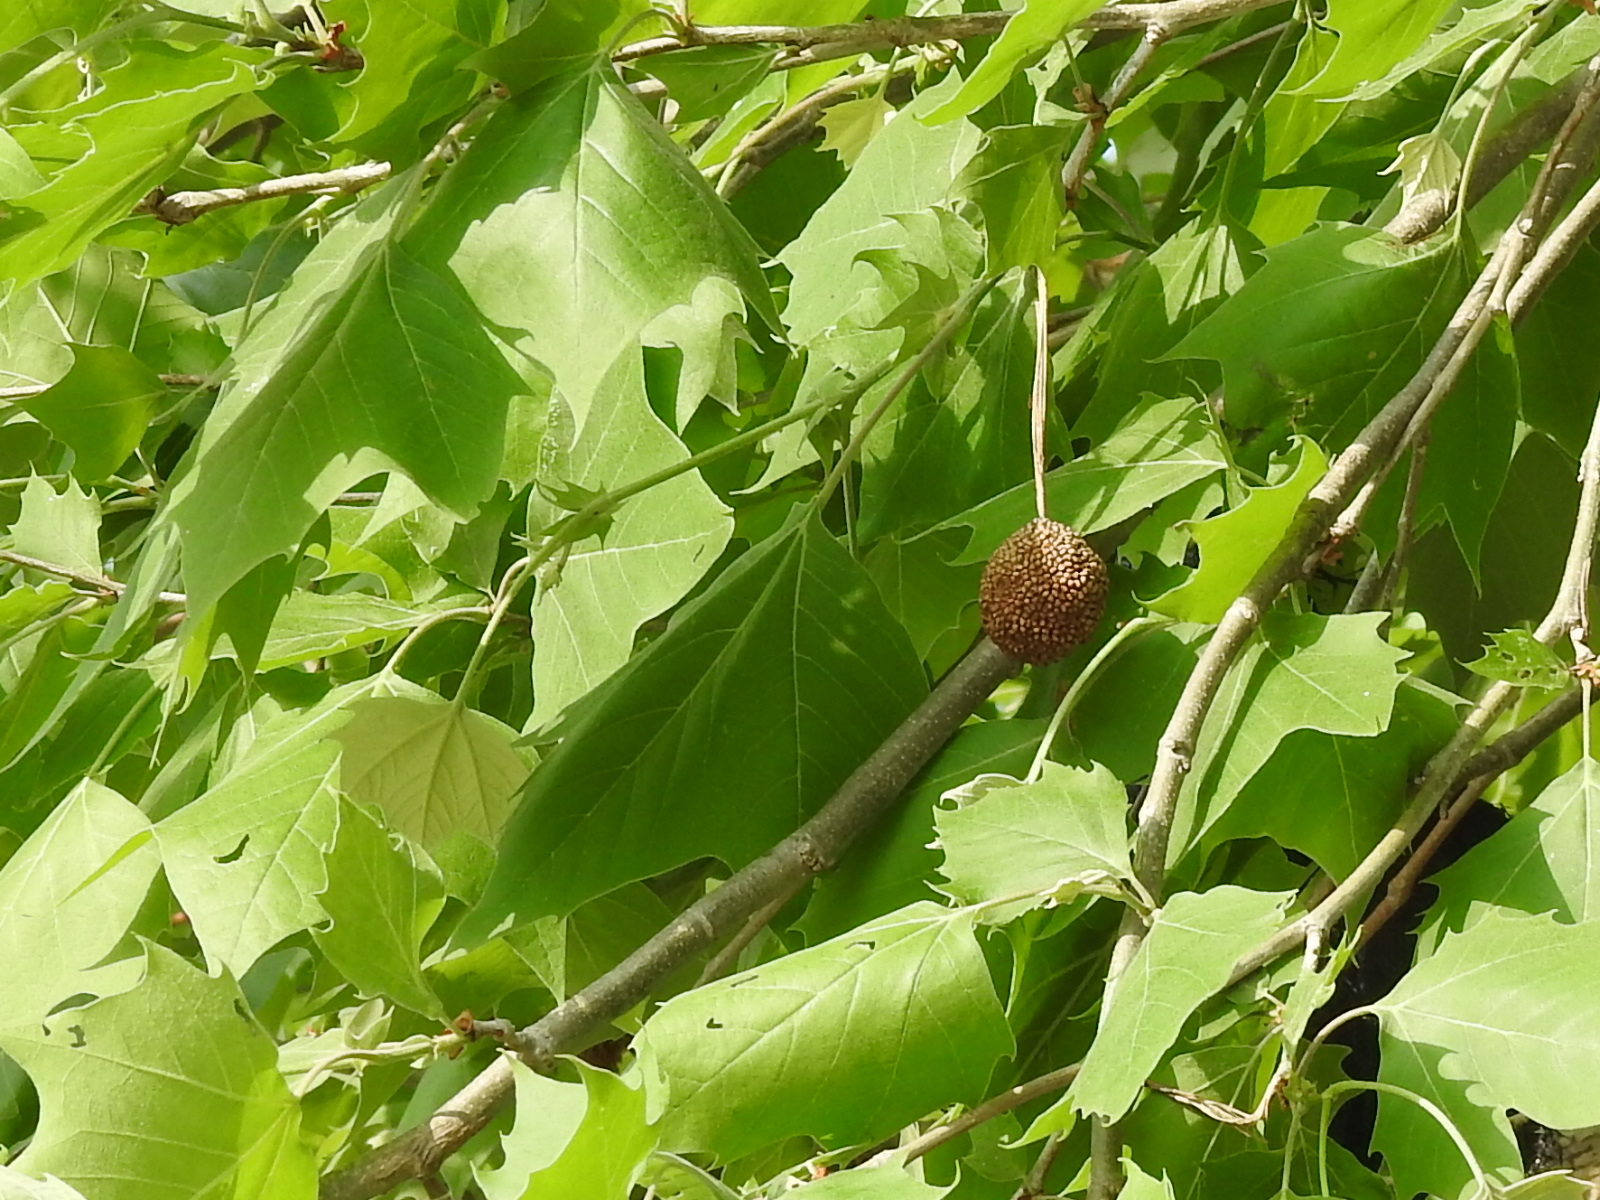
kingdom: Plantae
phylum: Tracheophyta
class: Magnoliopsida
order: Proteales
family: Platanaceae
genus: Platanus
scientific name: Platanus occidentalis
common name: American sycamore
